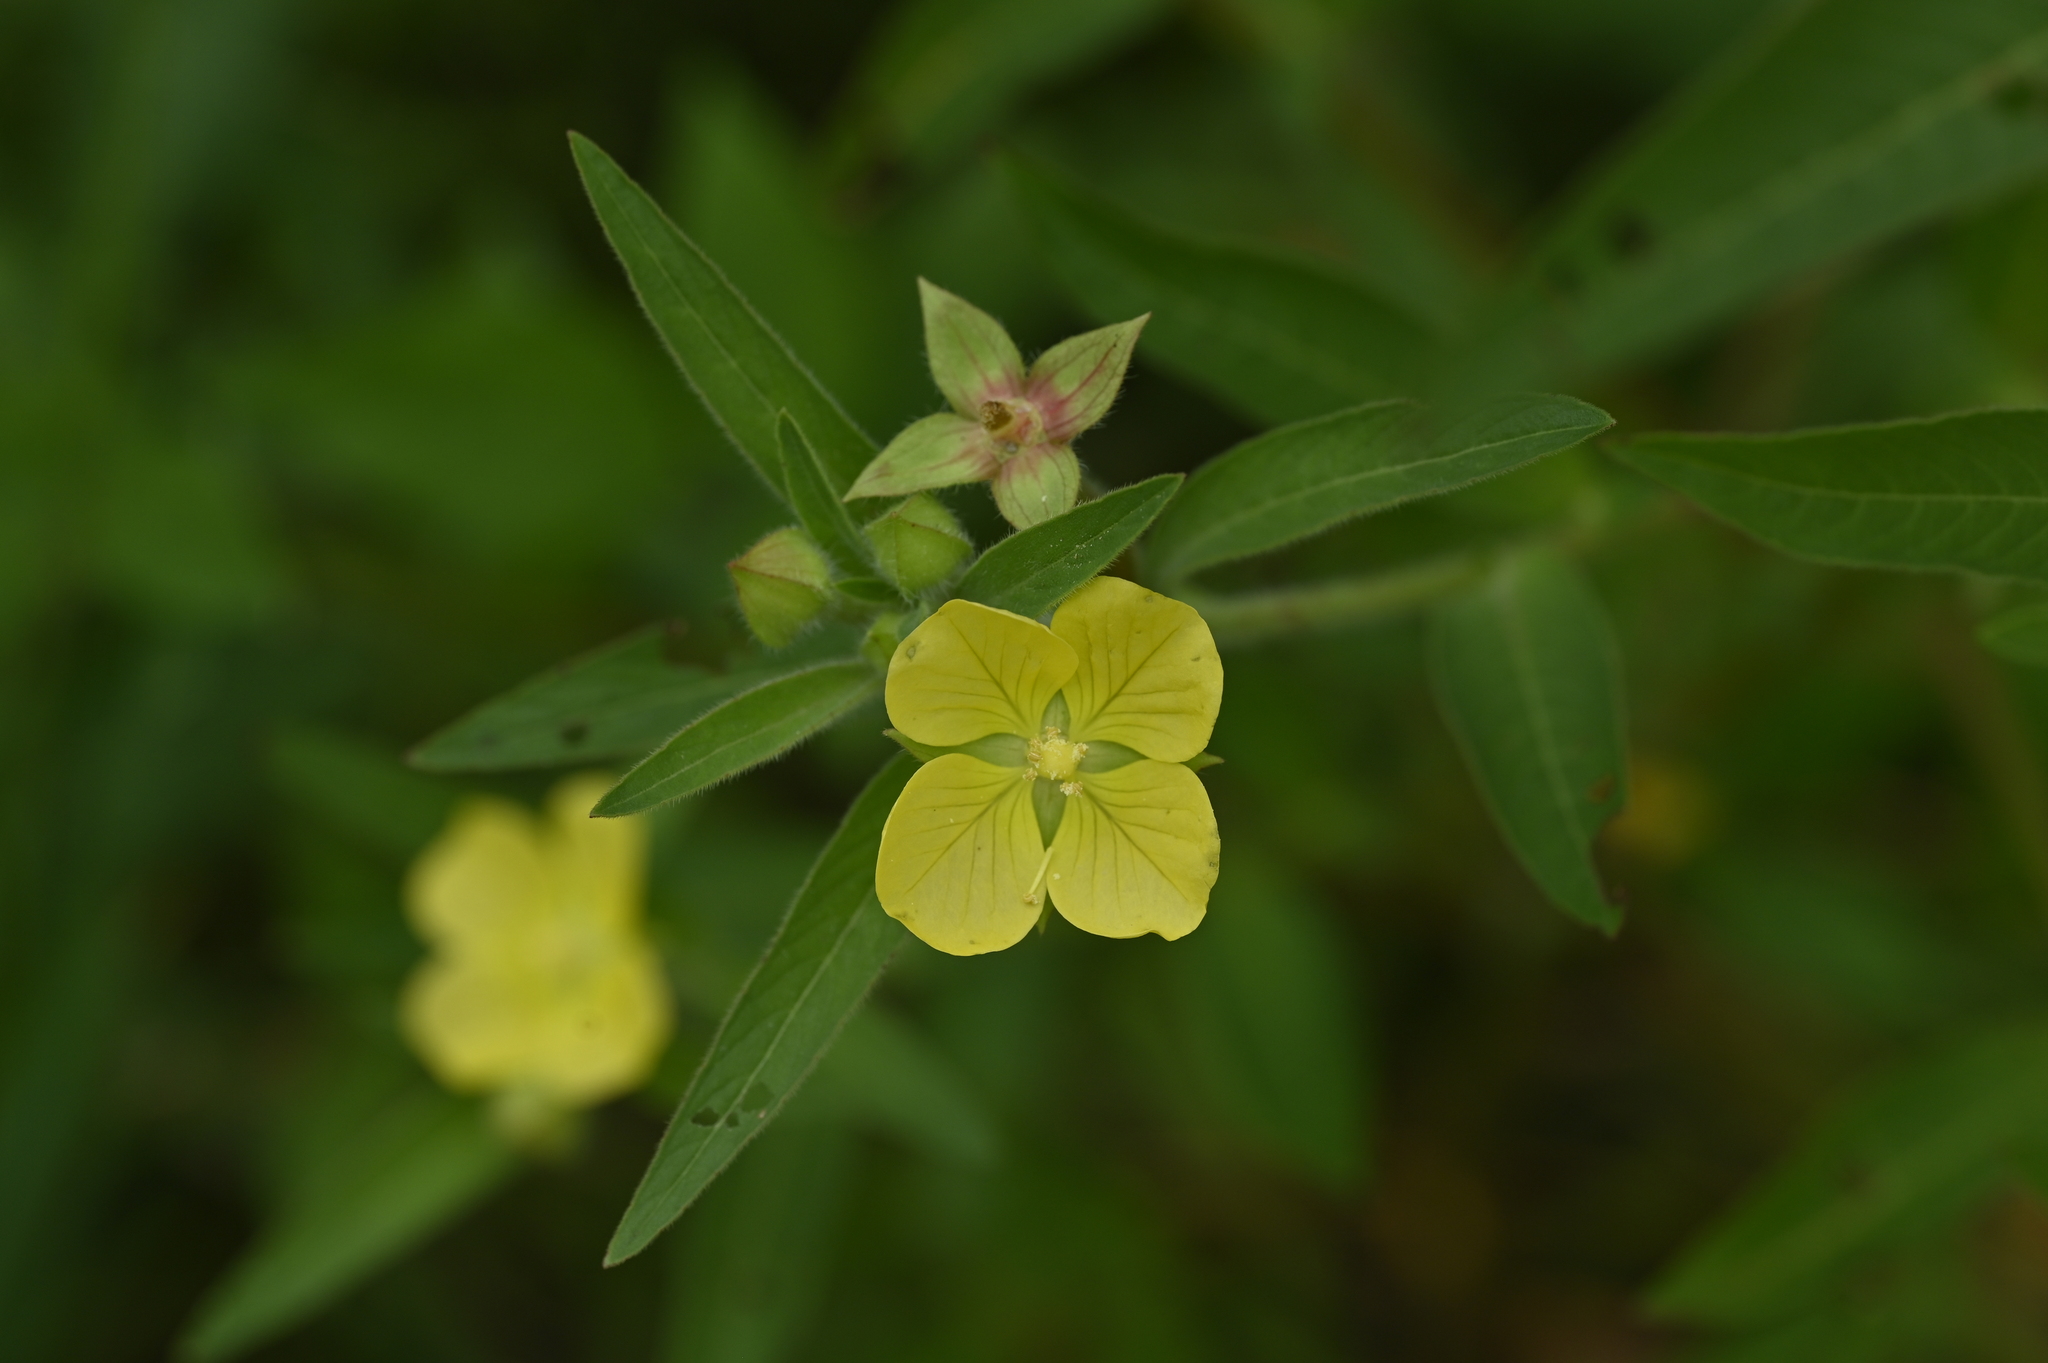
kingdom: Plantae
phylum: Tracheophyta
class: Magnoliopsida
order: Myrtales
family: Onagraceae
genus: Ludwigia
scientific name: Ludwigia octovalvis
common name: Water-primrose
